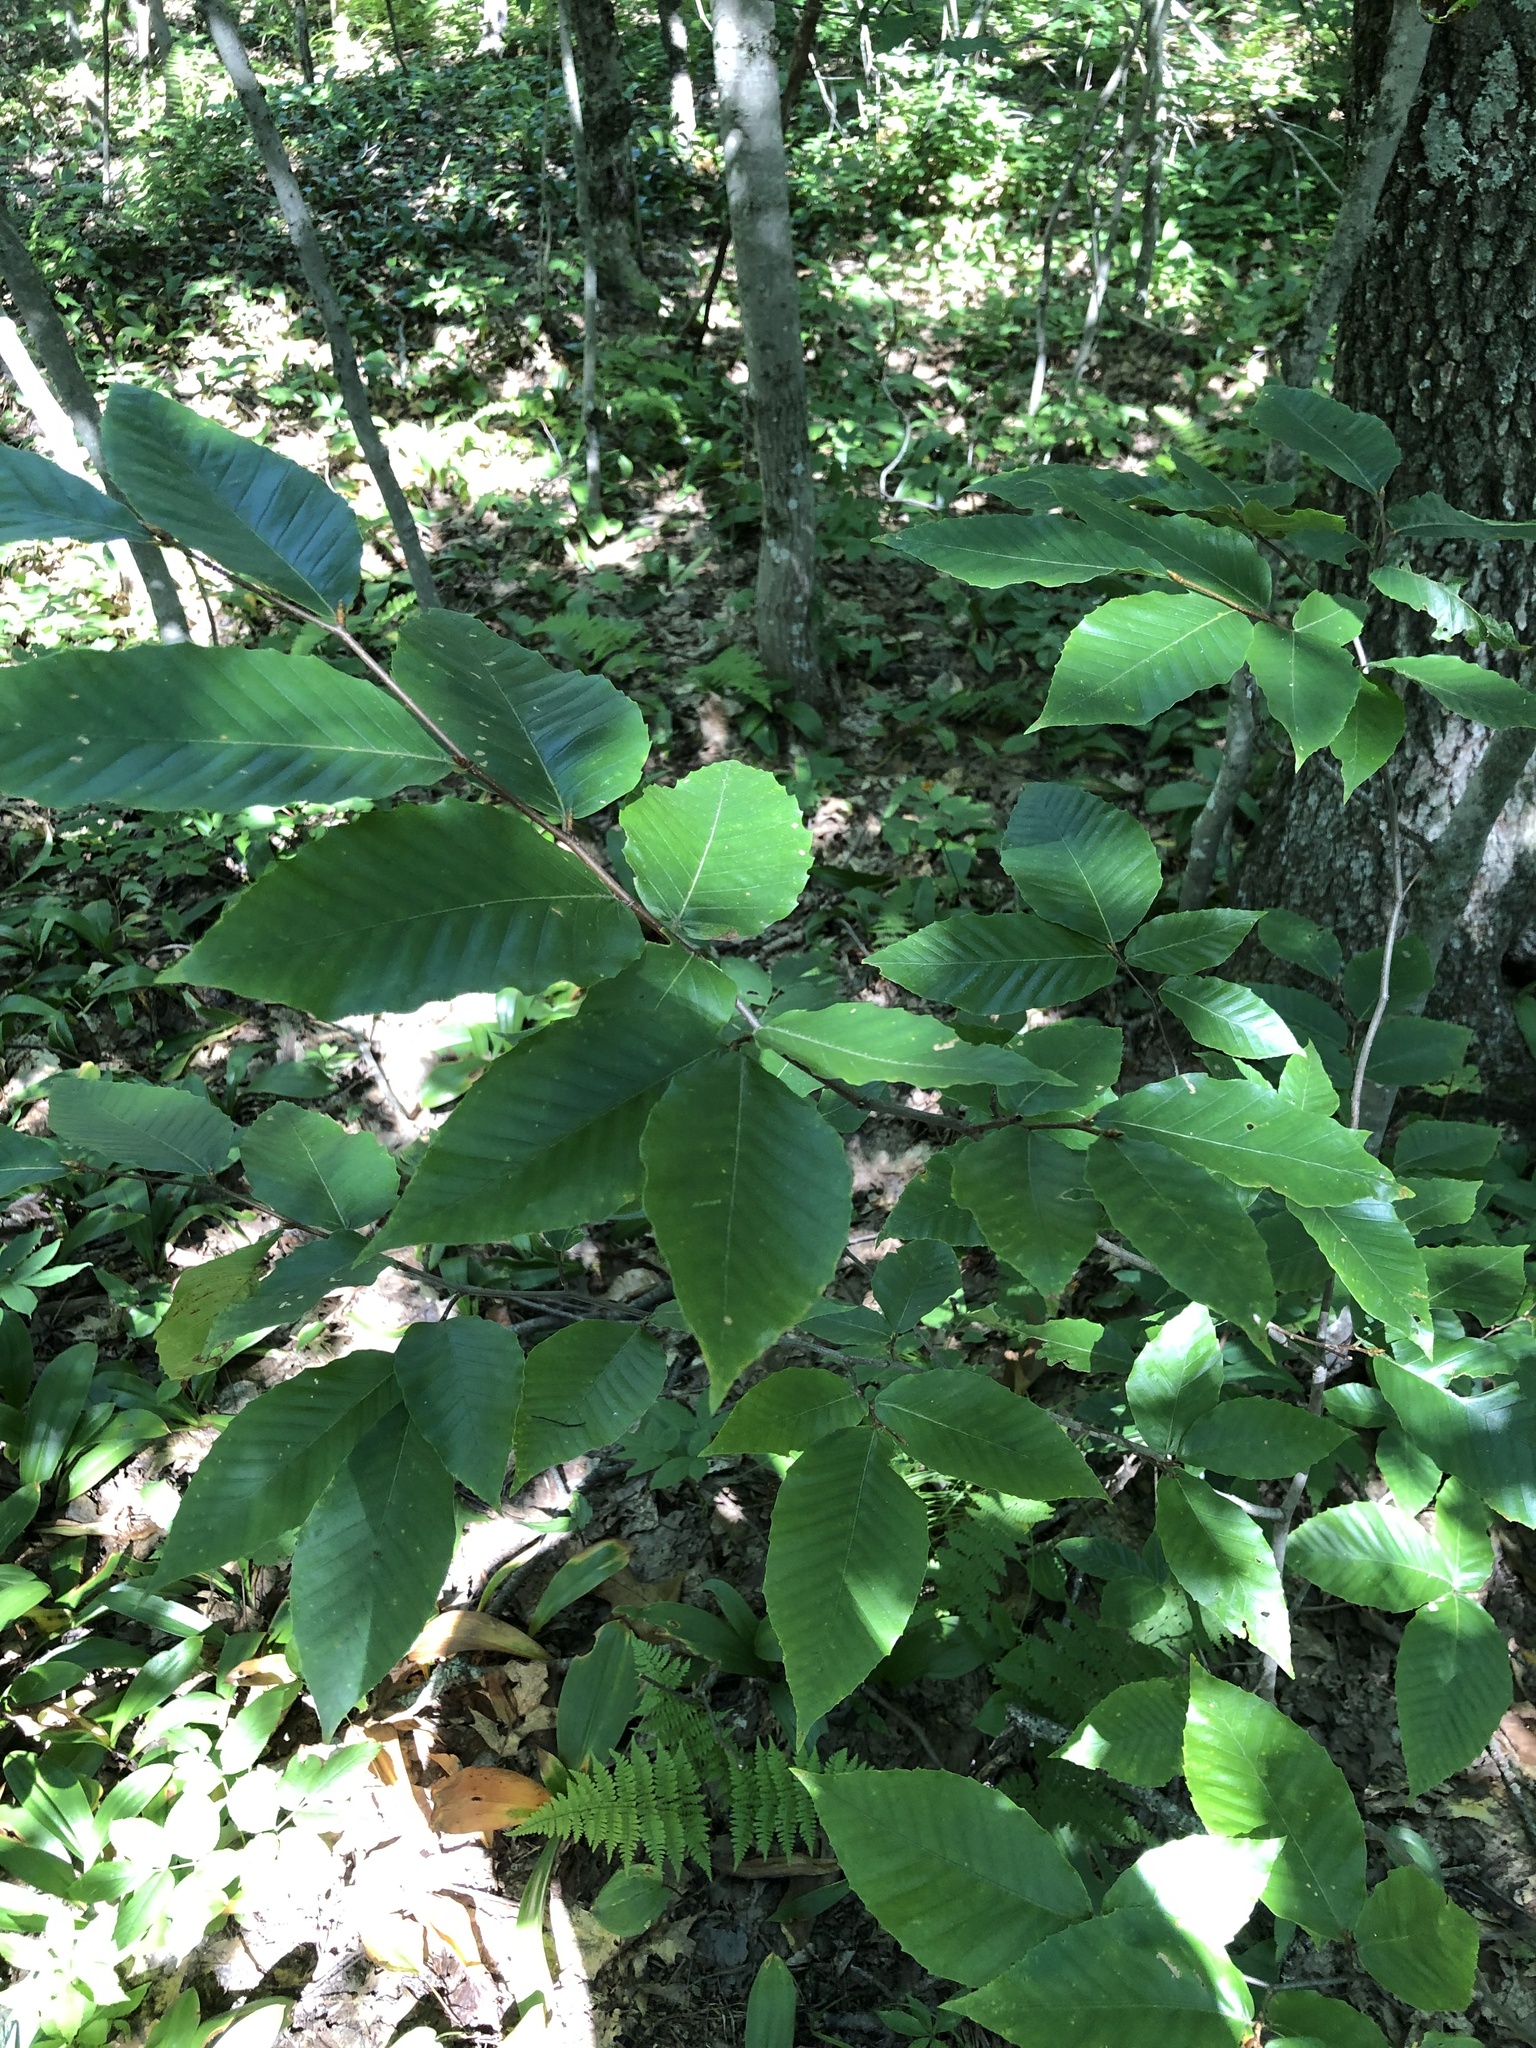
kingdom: Plantae
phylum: Tracheophyta
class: Magnoliopsida
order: Fagales
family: Fagaceae
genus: Fagus
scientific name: Fagus grandifolia
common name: American beech
